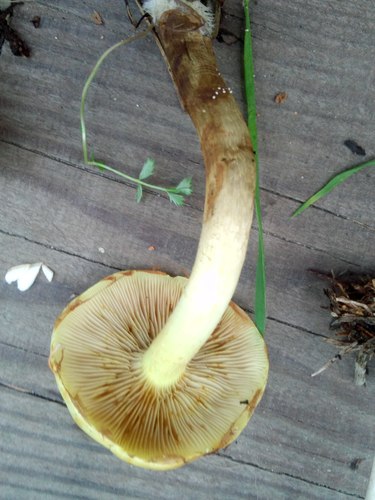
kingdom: Fungi
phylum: Basidiomycota
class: Agaricomycetes
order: Agaricales
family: Strophariaceae
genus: Hypholoma
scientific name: Hypholoma capnoides
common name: Conifer tuft
